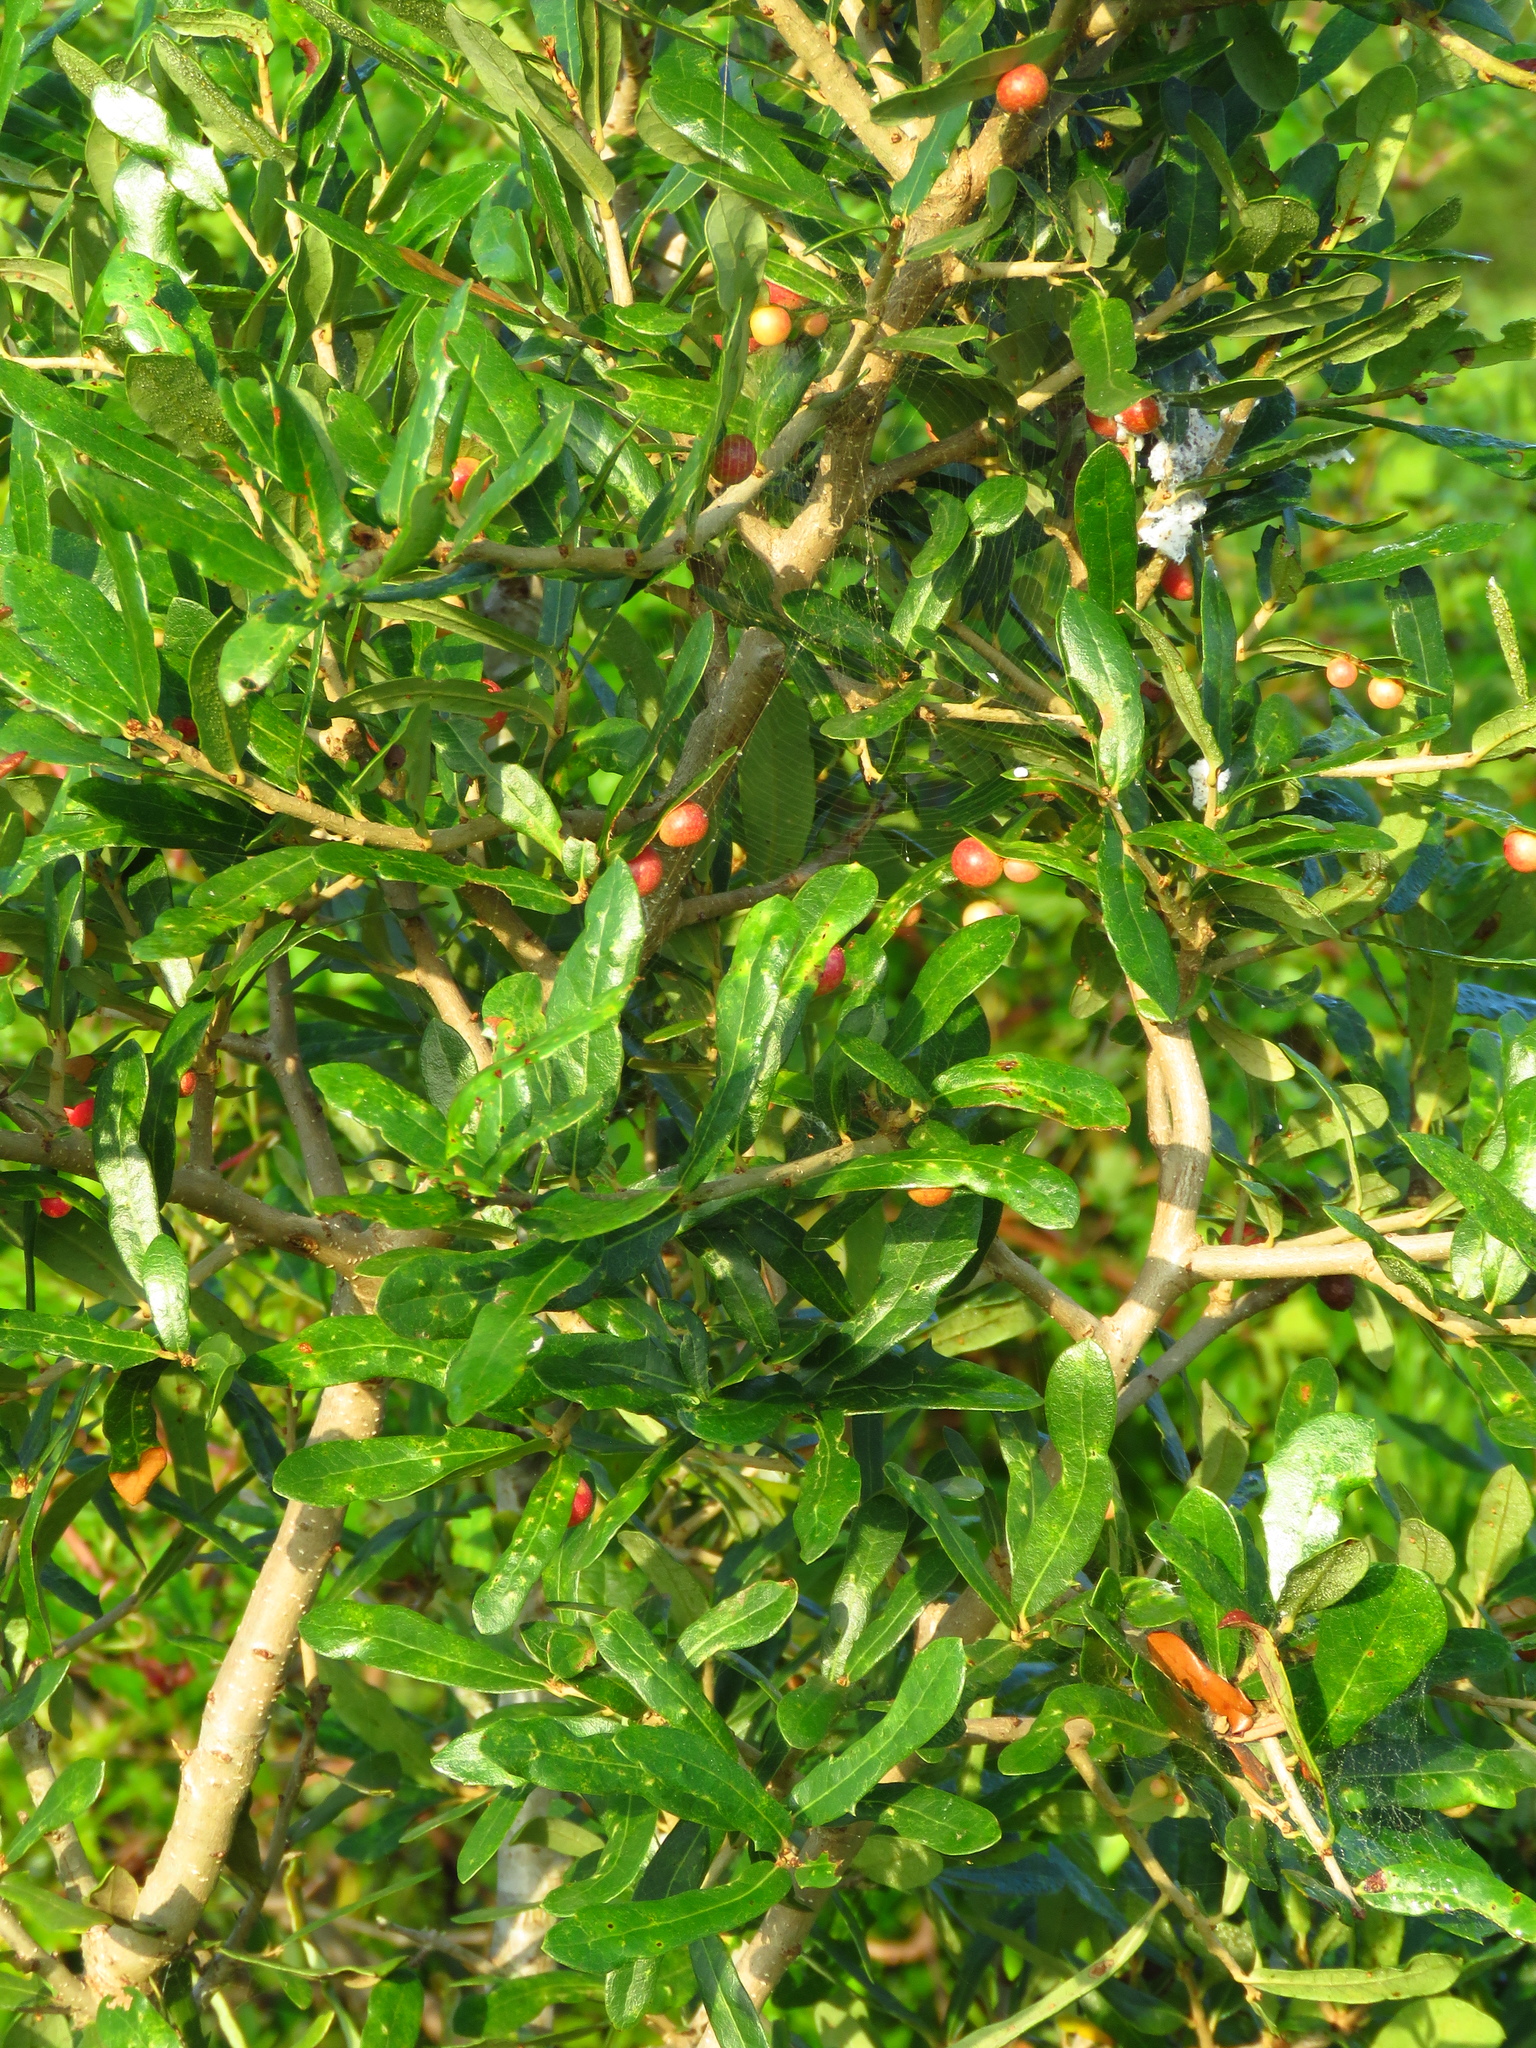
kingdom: Plantae
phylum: Tracheophyta
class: Magnoliopsida
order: Fagales
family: Fagaceae
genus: Quercus
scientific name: Quercus virginiana
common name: Southern live oak
